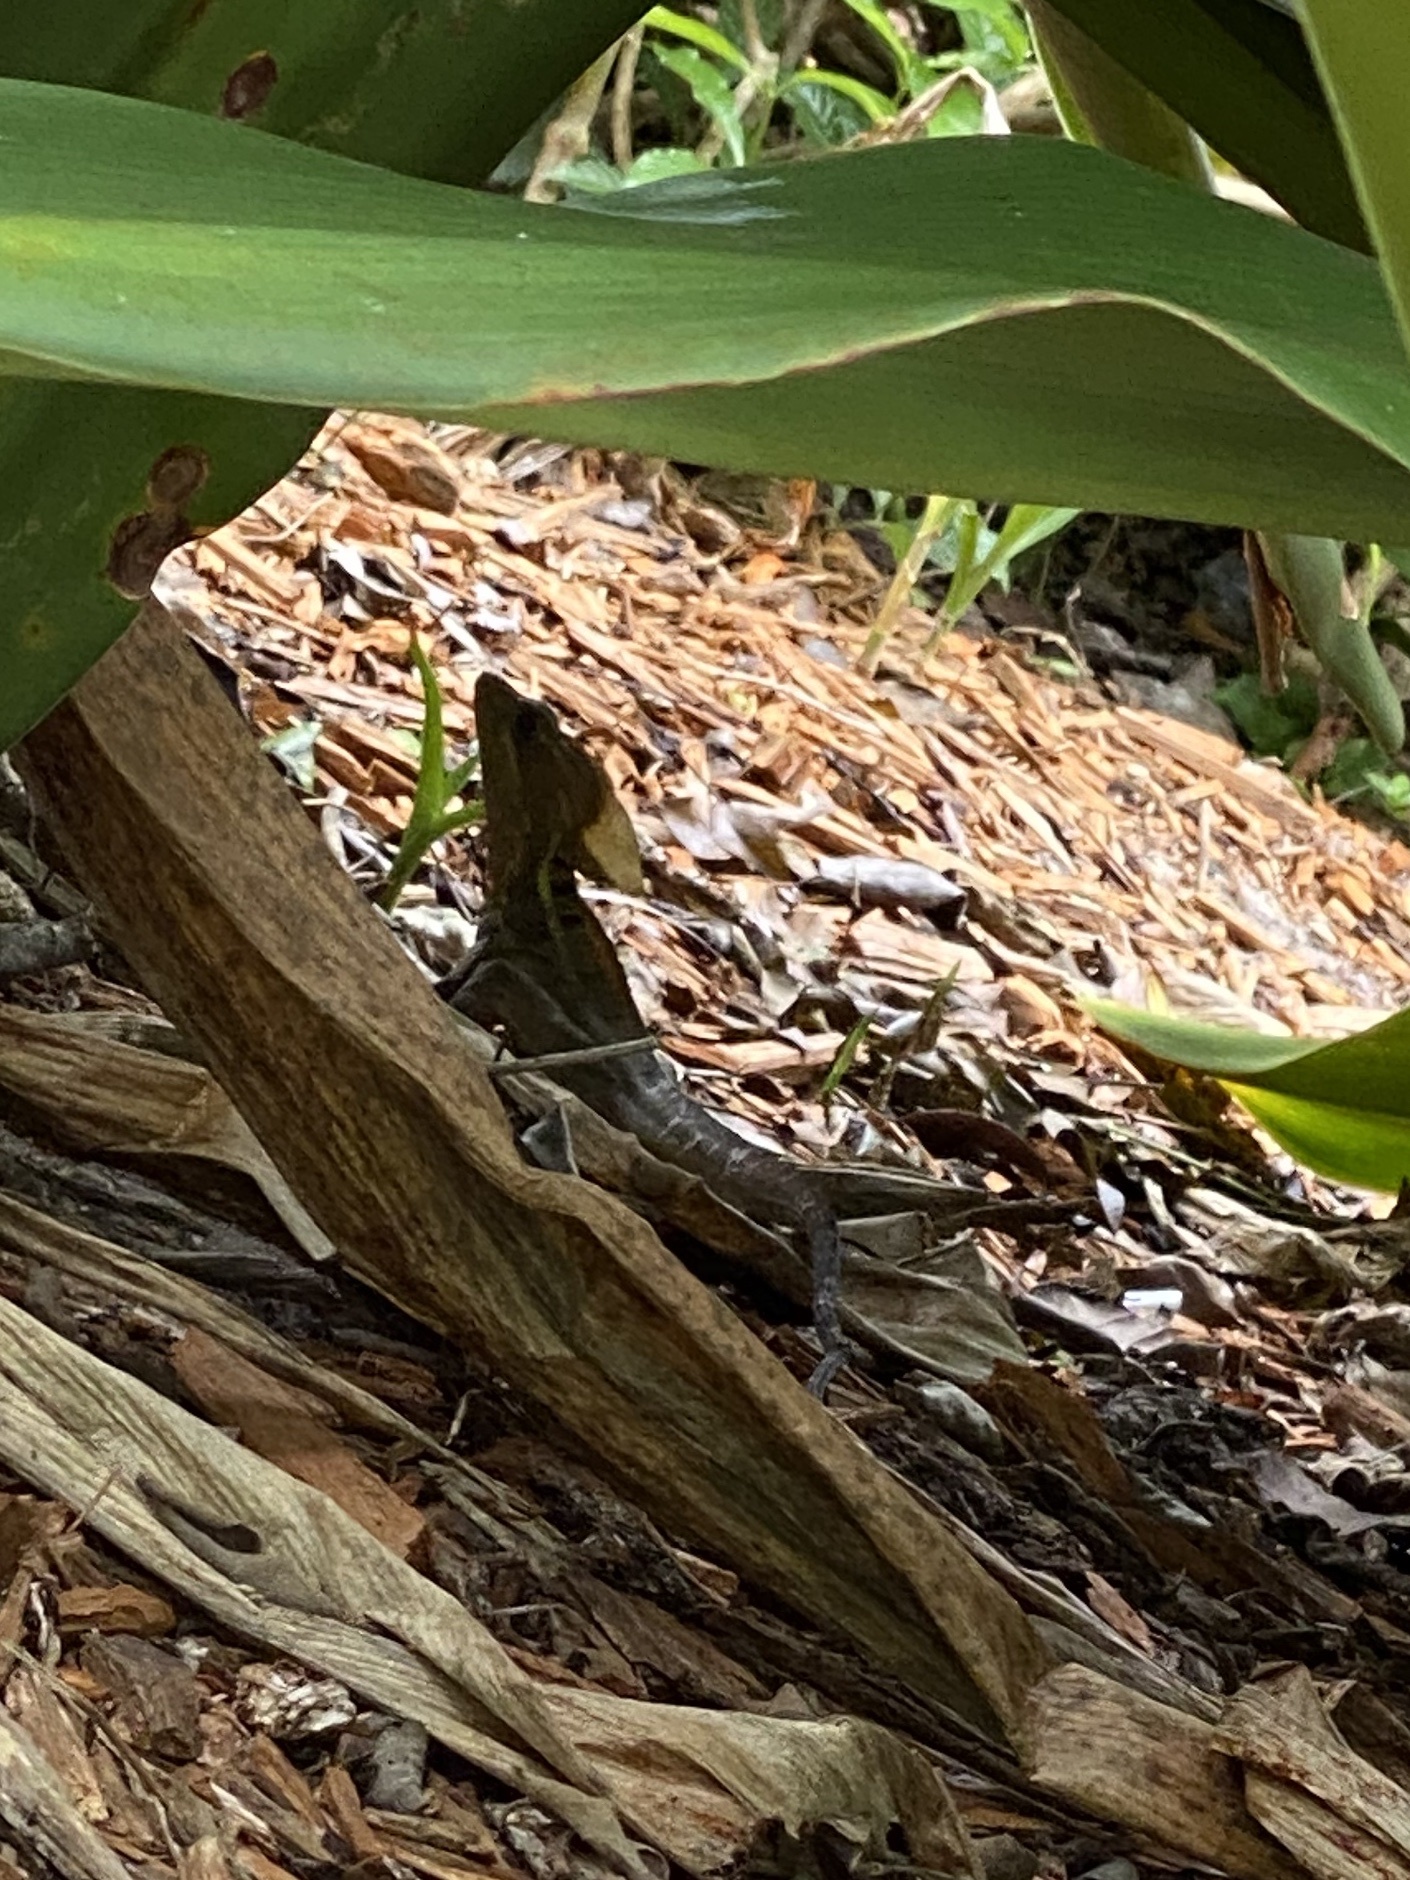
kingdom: Animalia
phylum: Chordata
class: Squamata
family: Corytophanidae
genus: Basiliscus
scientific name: Basiliscus vittatus
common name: Brown basilisk
